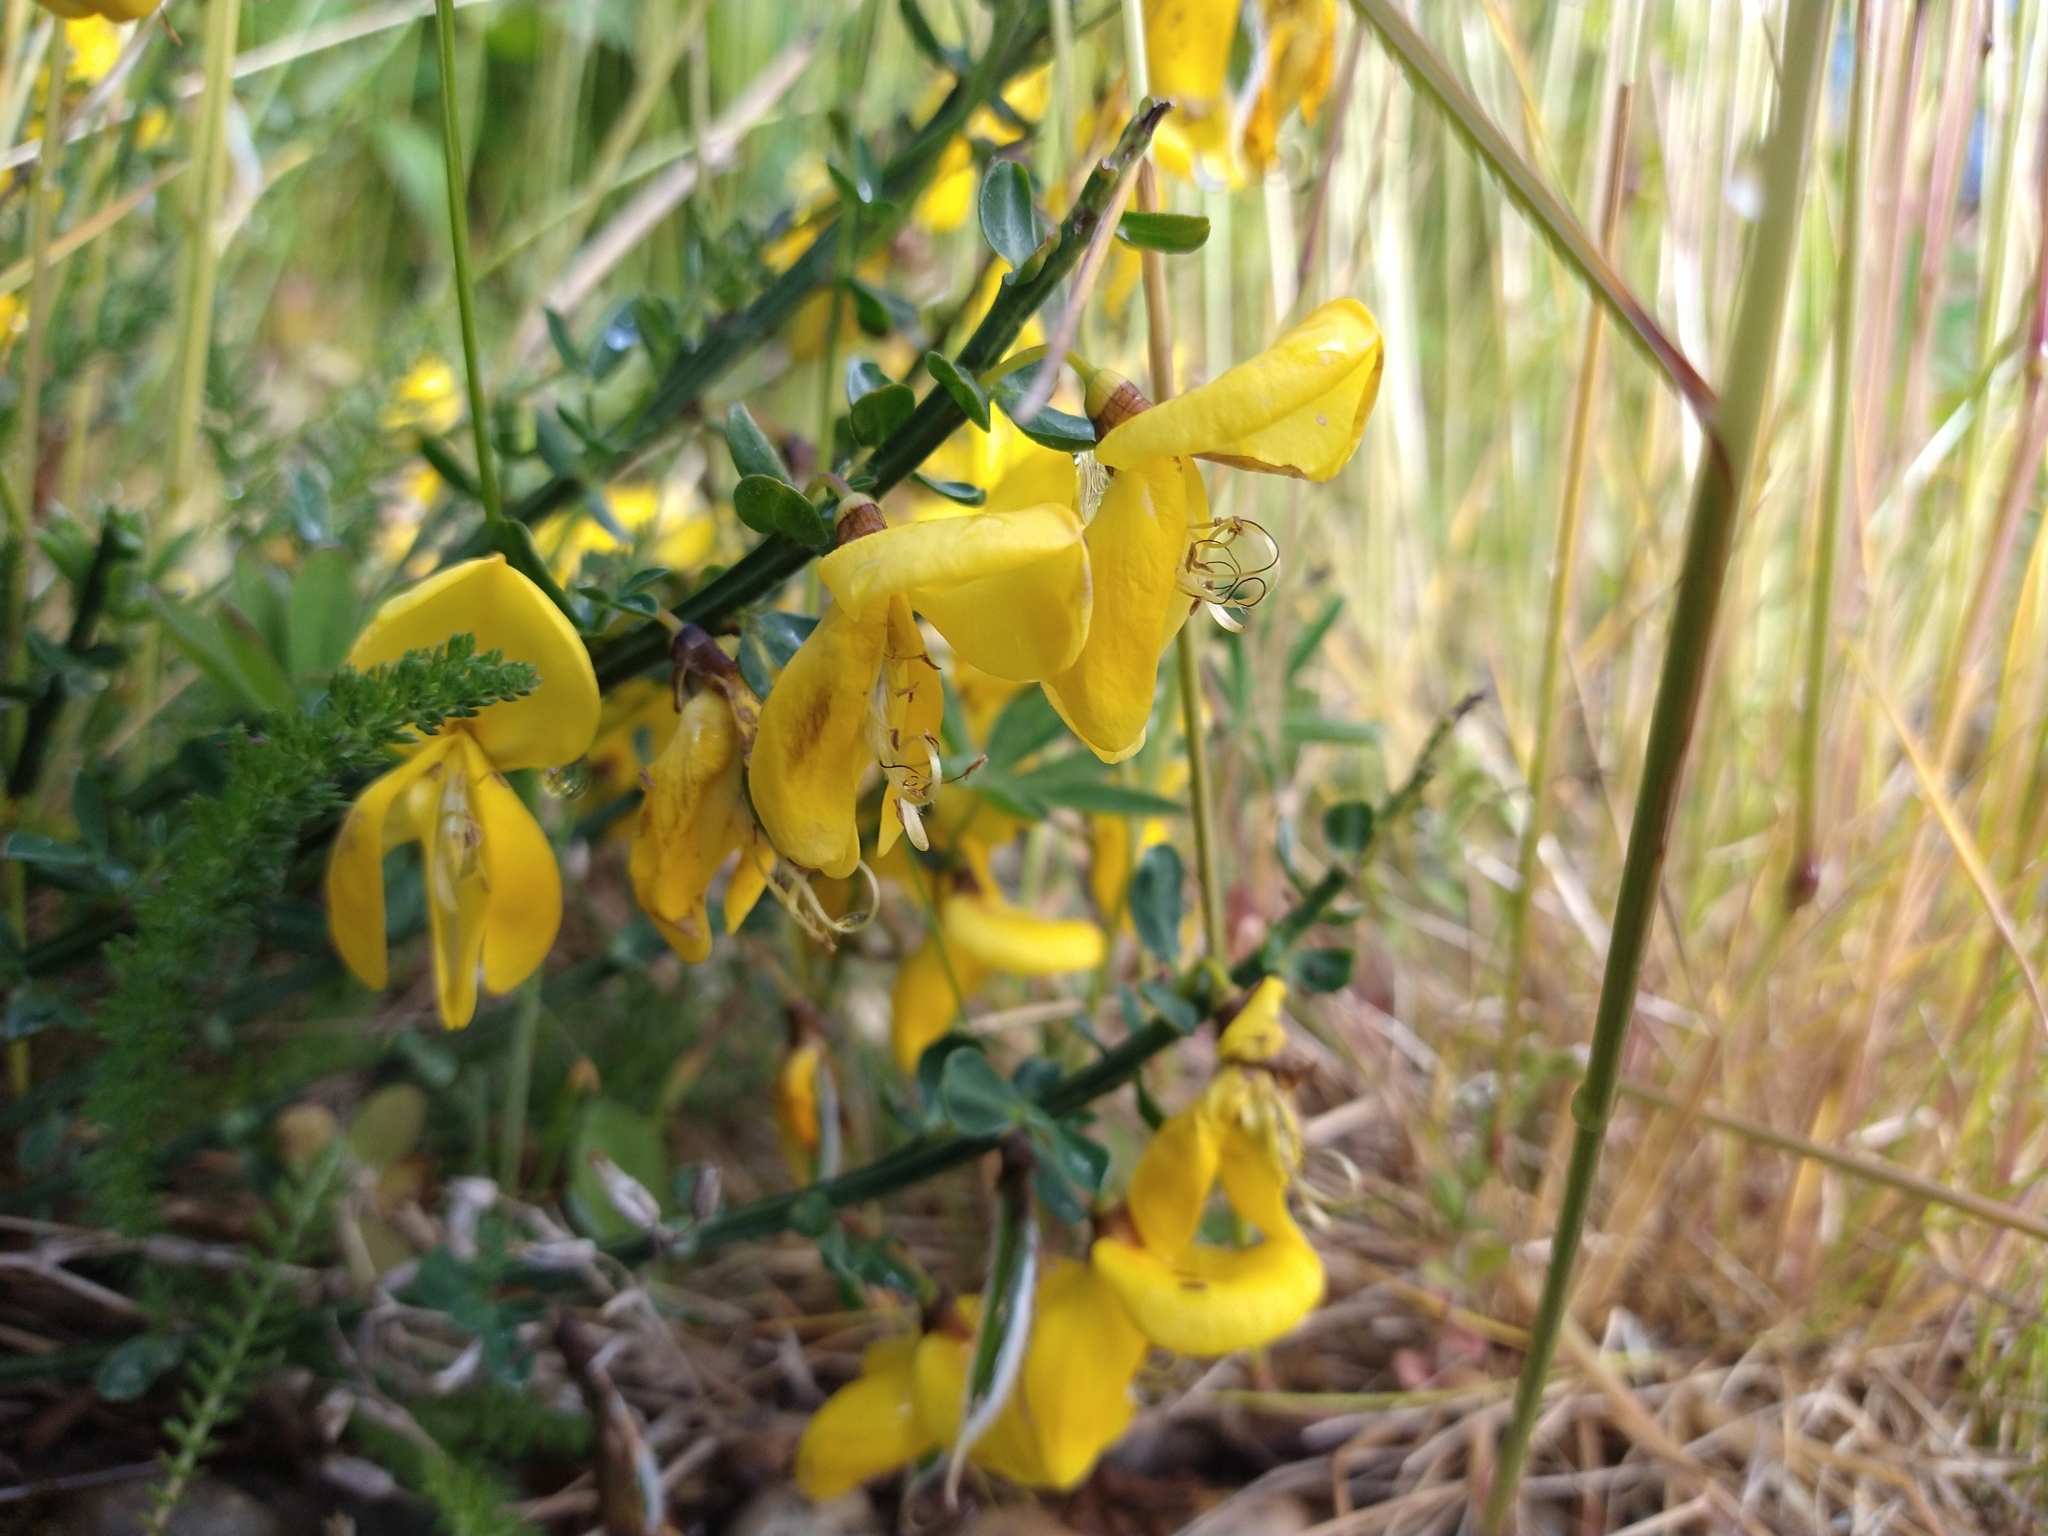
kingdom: Plantae
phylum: Tracheophyta
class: Magnoliopsida
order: Fabales
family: Fabaceae
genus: Cytisus
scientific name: Cytisus scoparius
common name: Scotch broom
